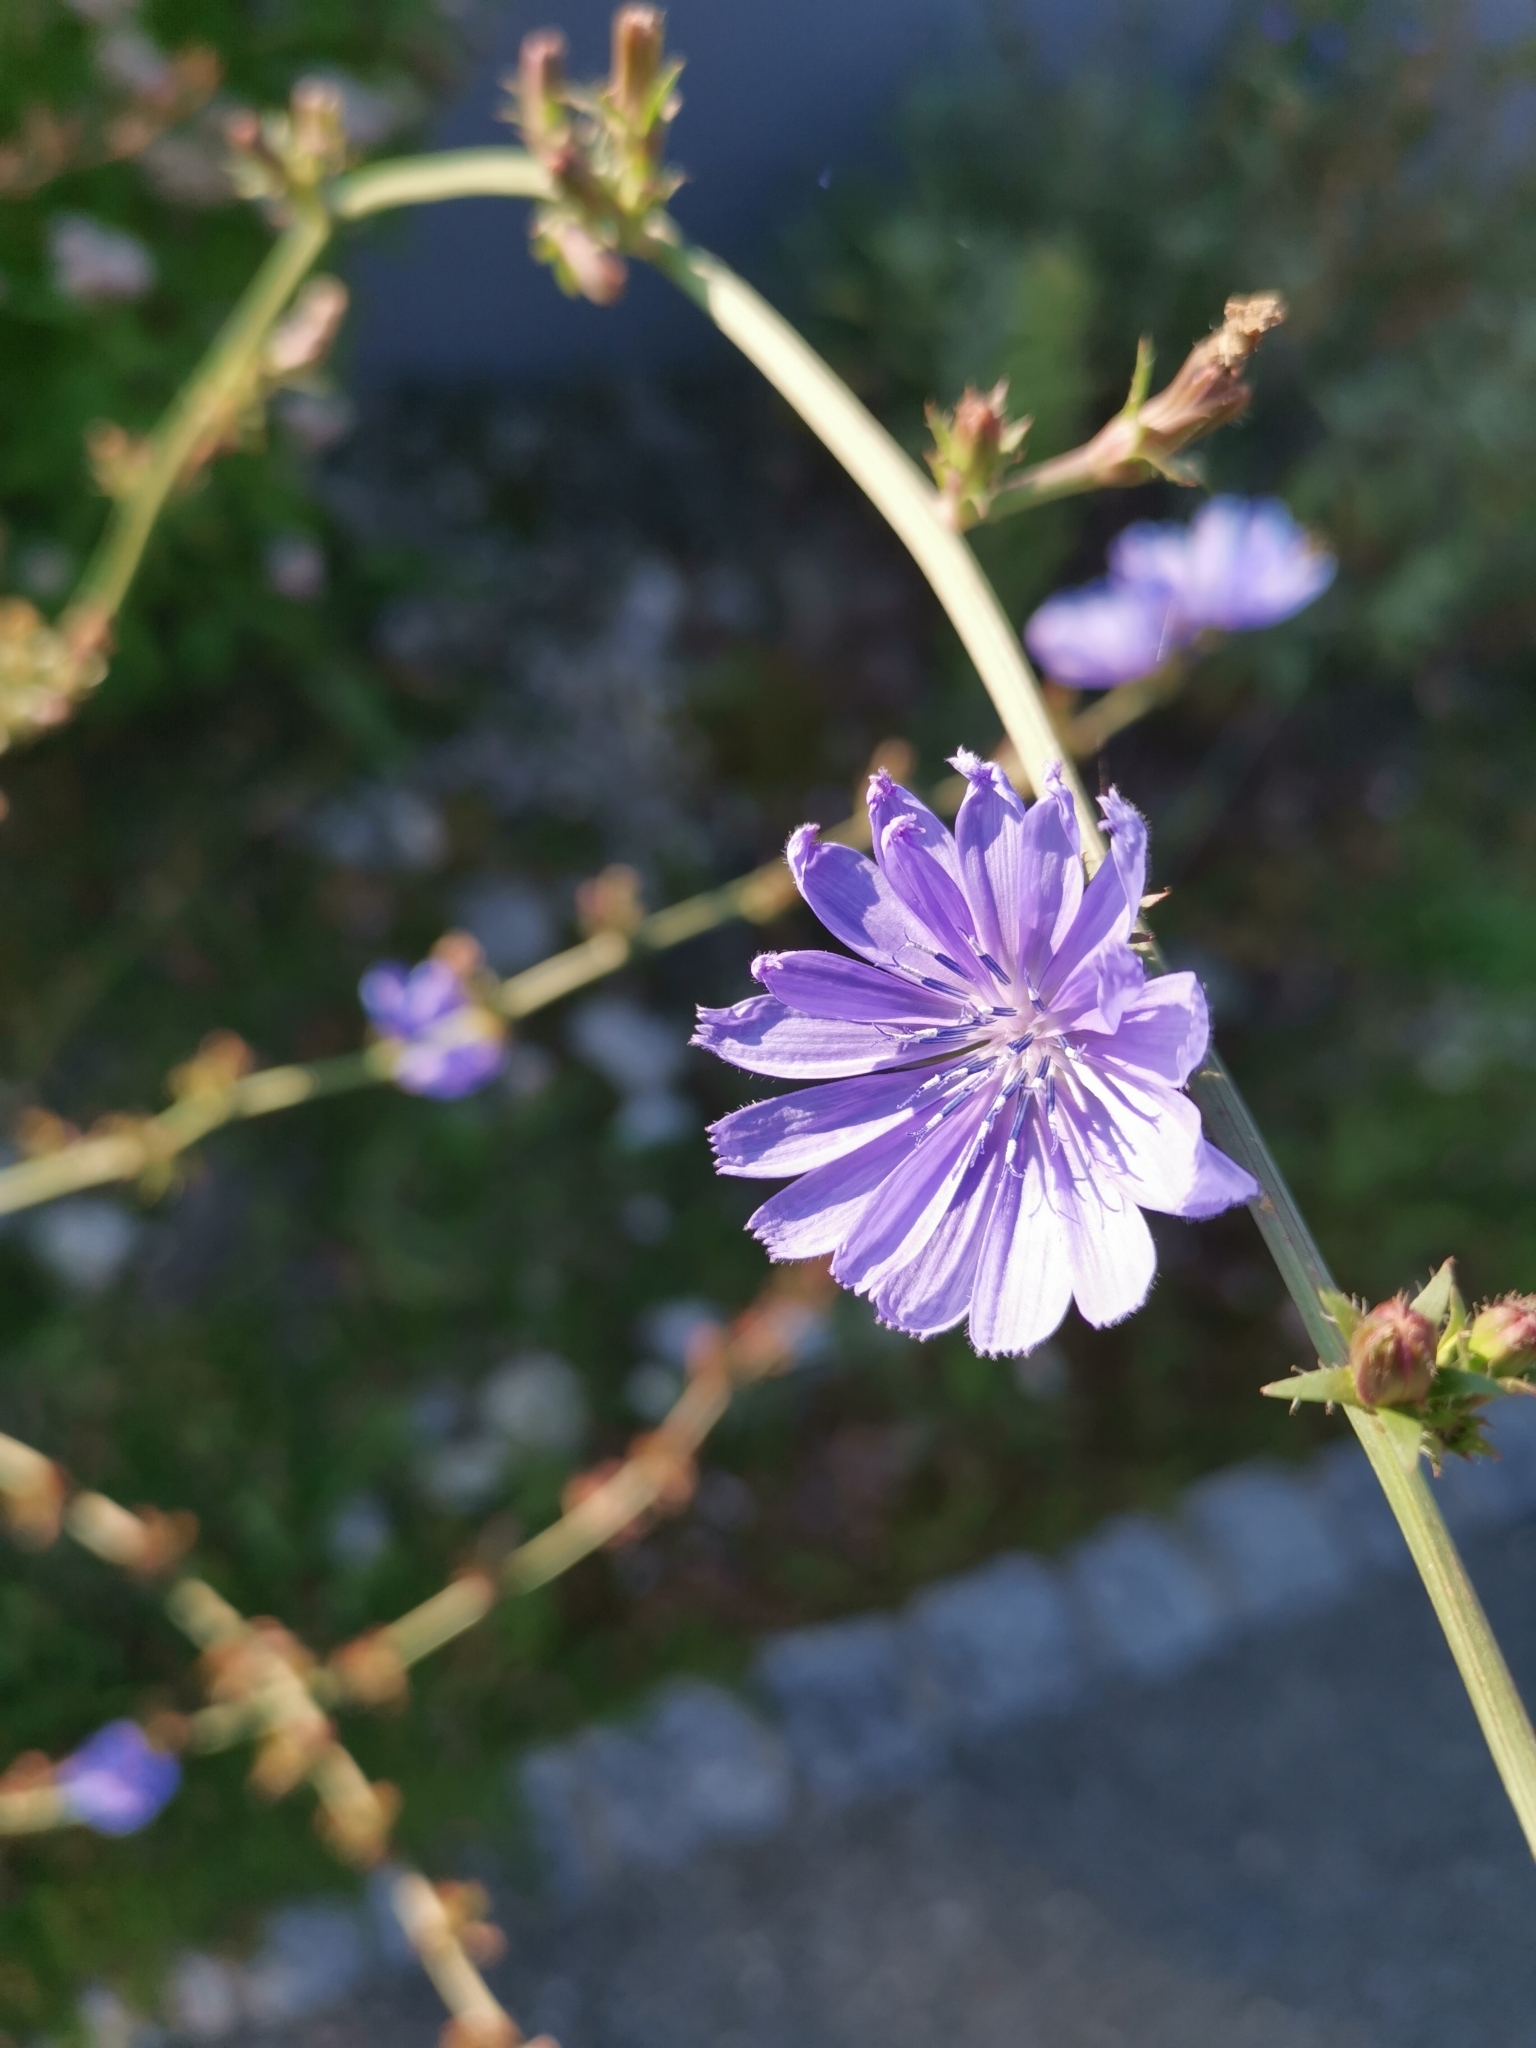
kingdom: Plantae
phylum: Tracheophyta
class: Magnoliopsida
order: Asterales
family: Asteraceae
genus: Cichorium
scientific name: Cichorium intybus
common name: Chicory
